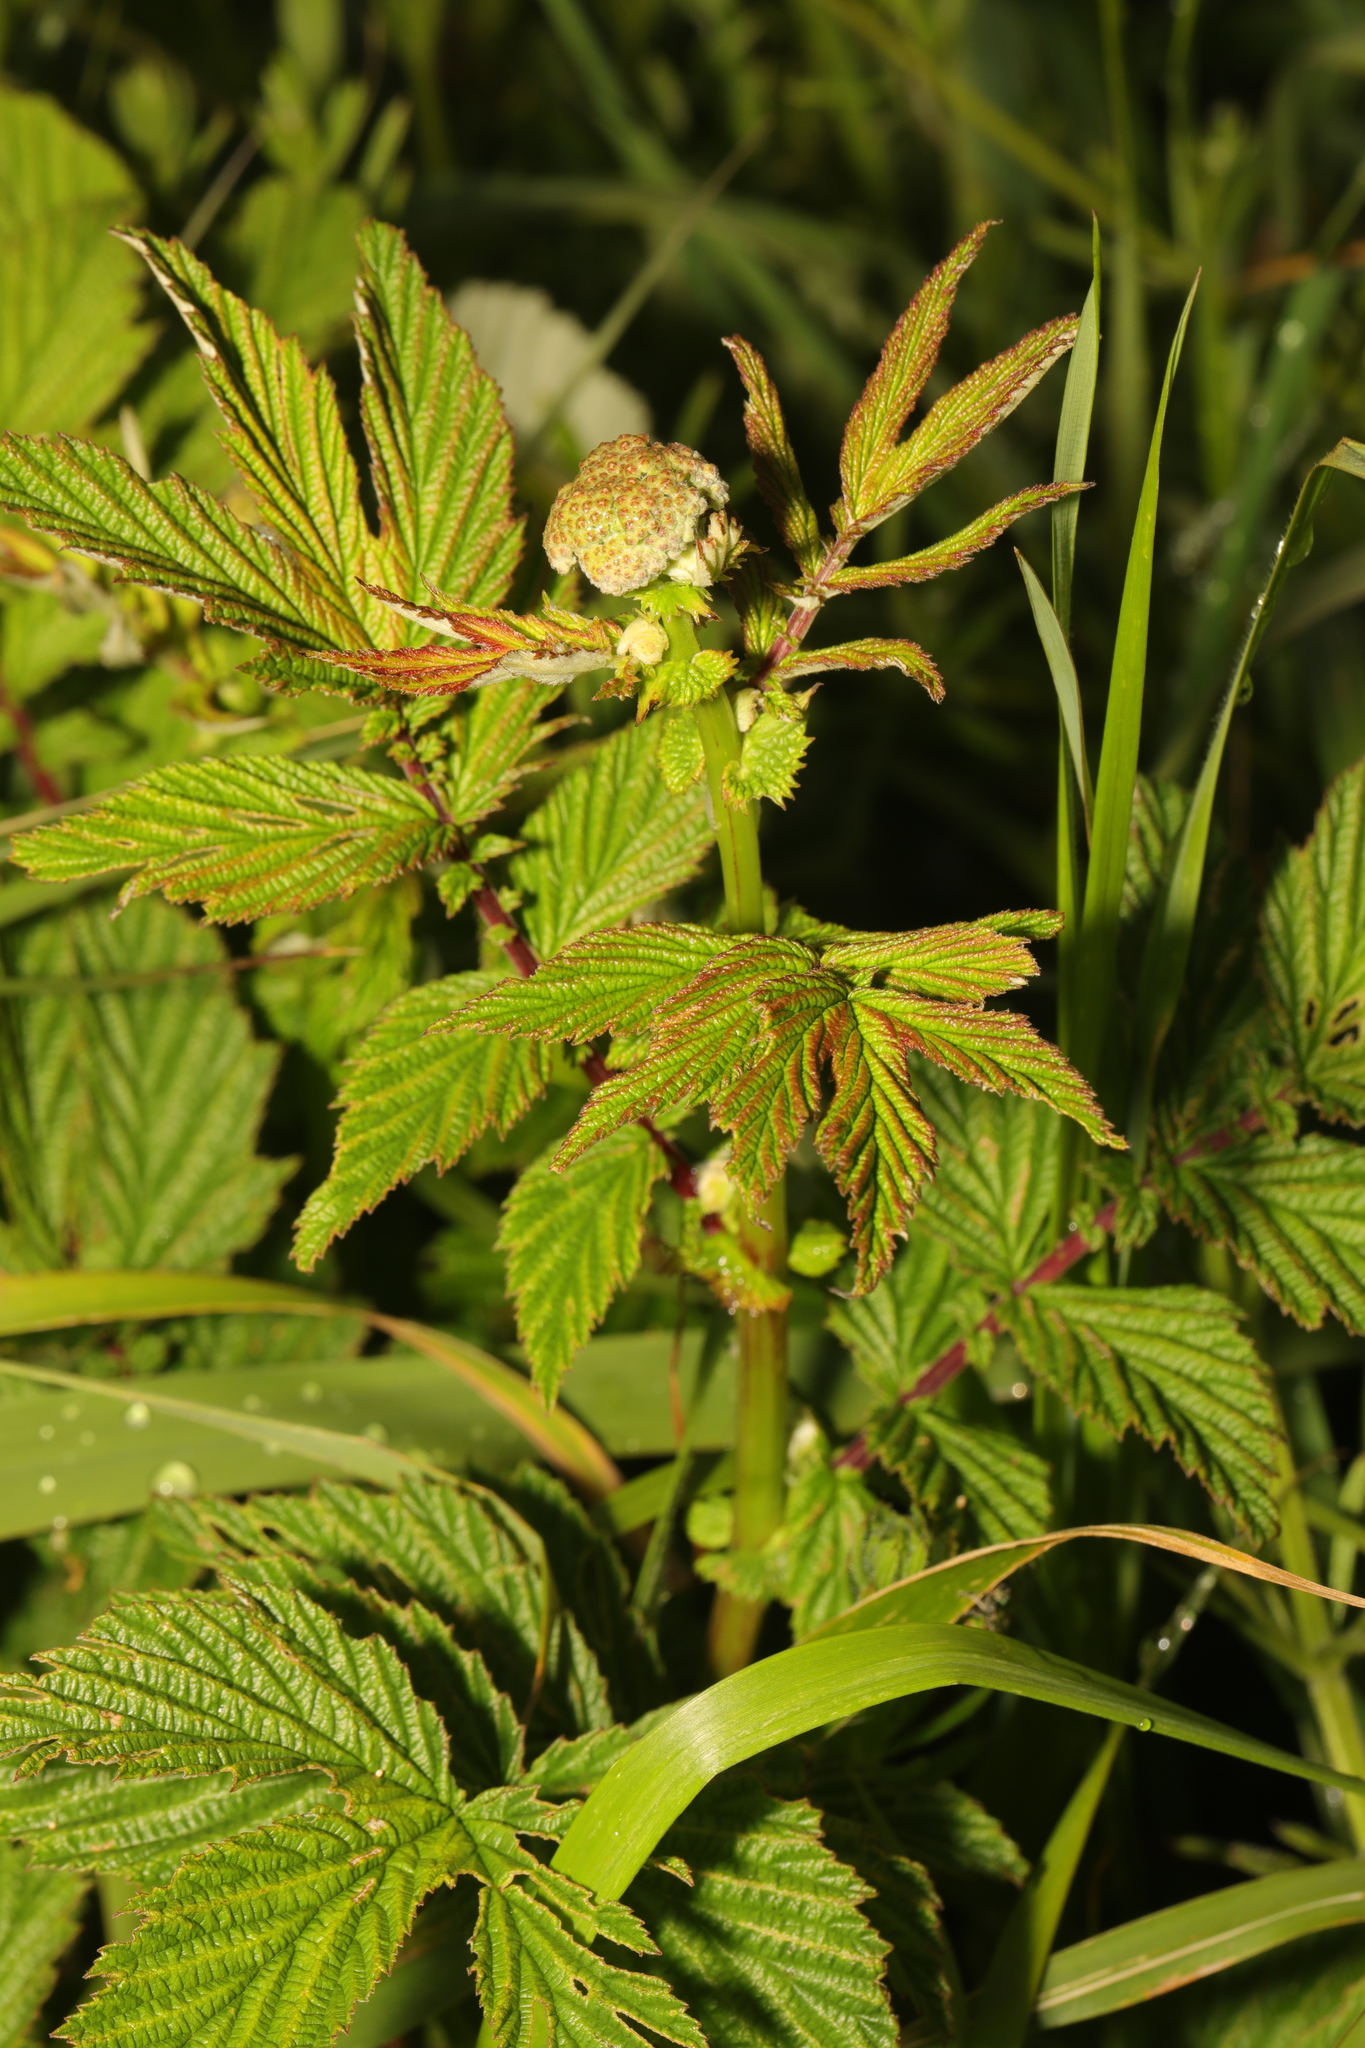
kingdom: Plantae
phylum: Tracheophyta
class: Magnoliopsida
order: Rosales
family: Rosaceae
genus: Filipendula
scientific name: Filipendula ulmaria
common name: Meadowsweet
